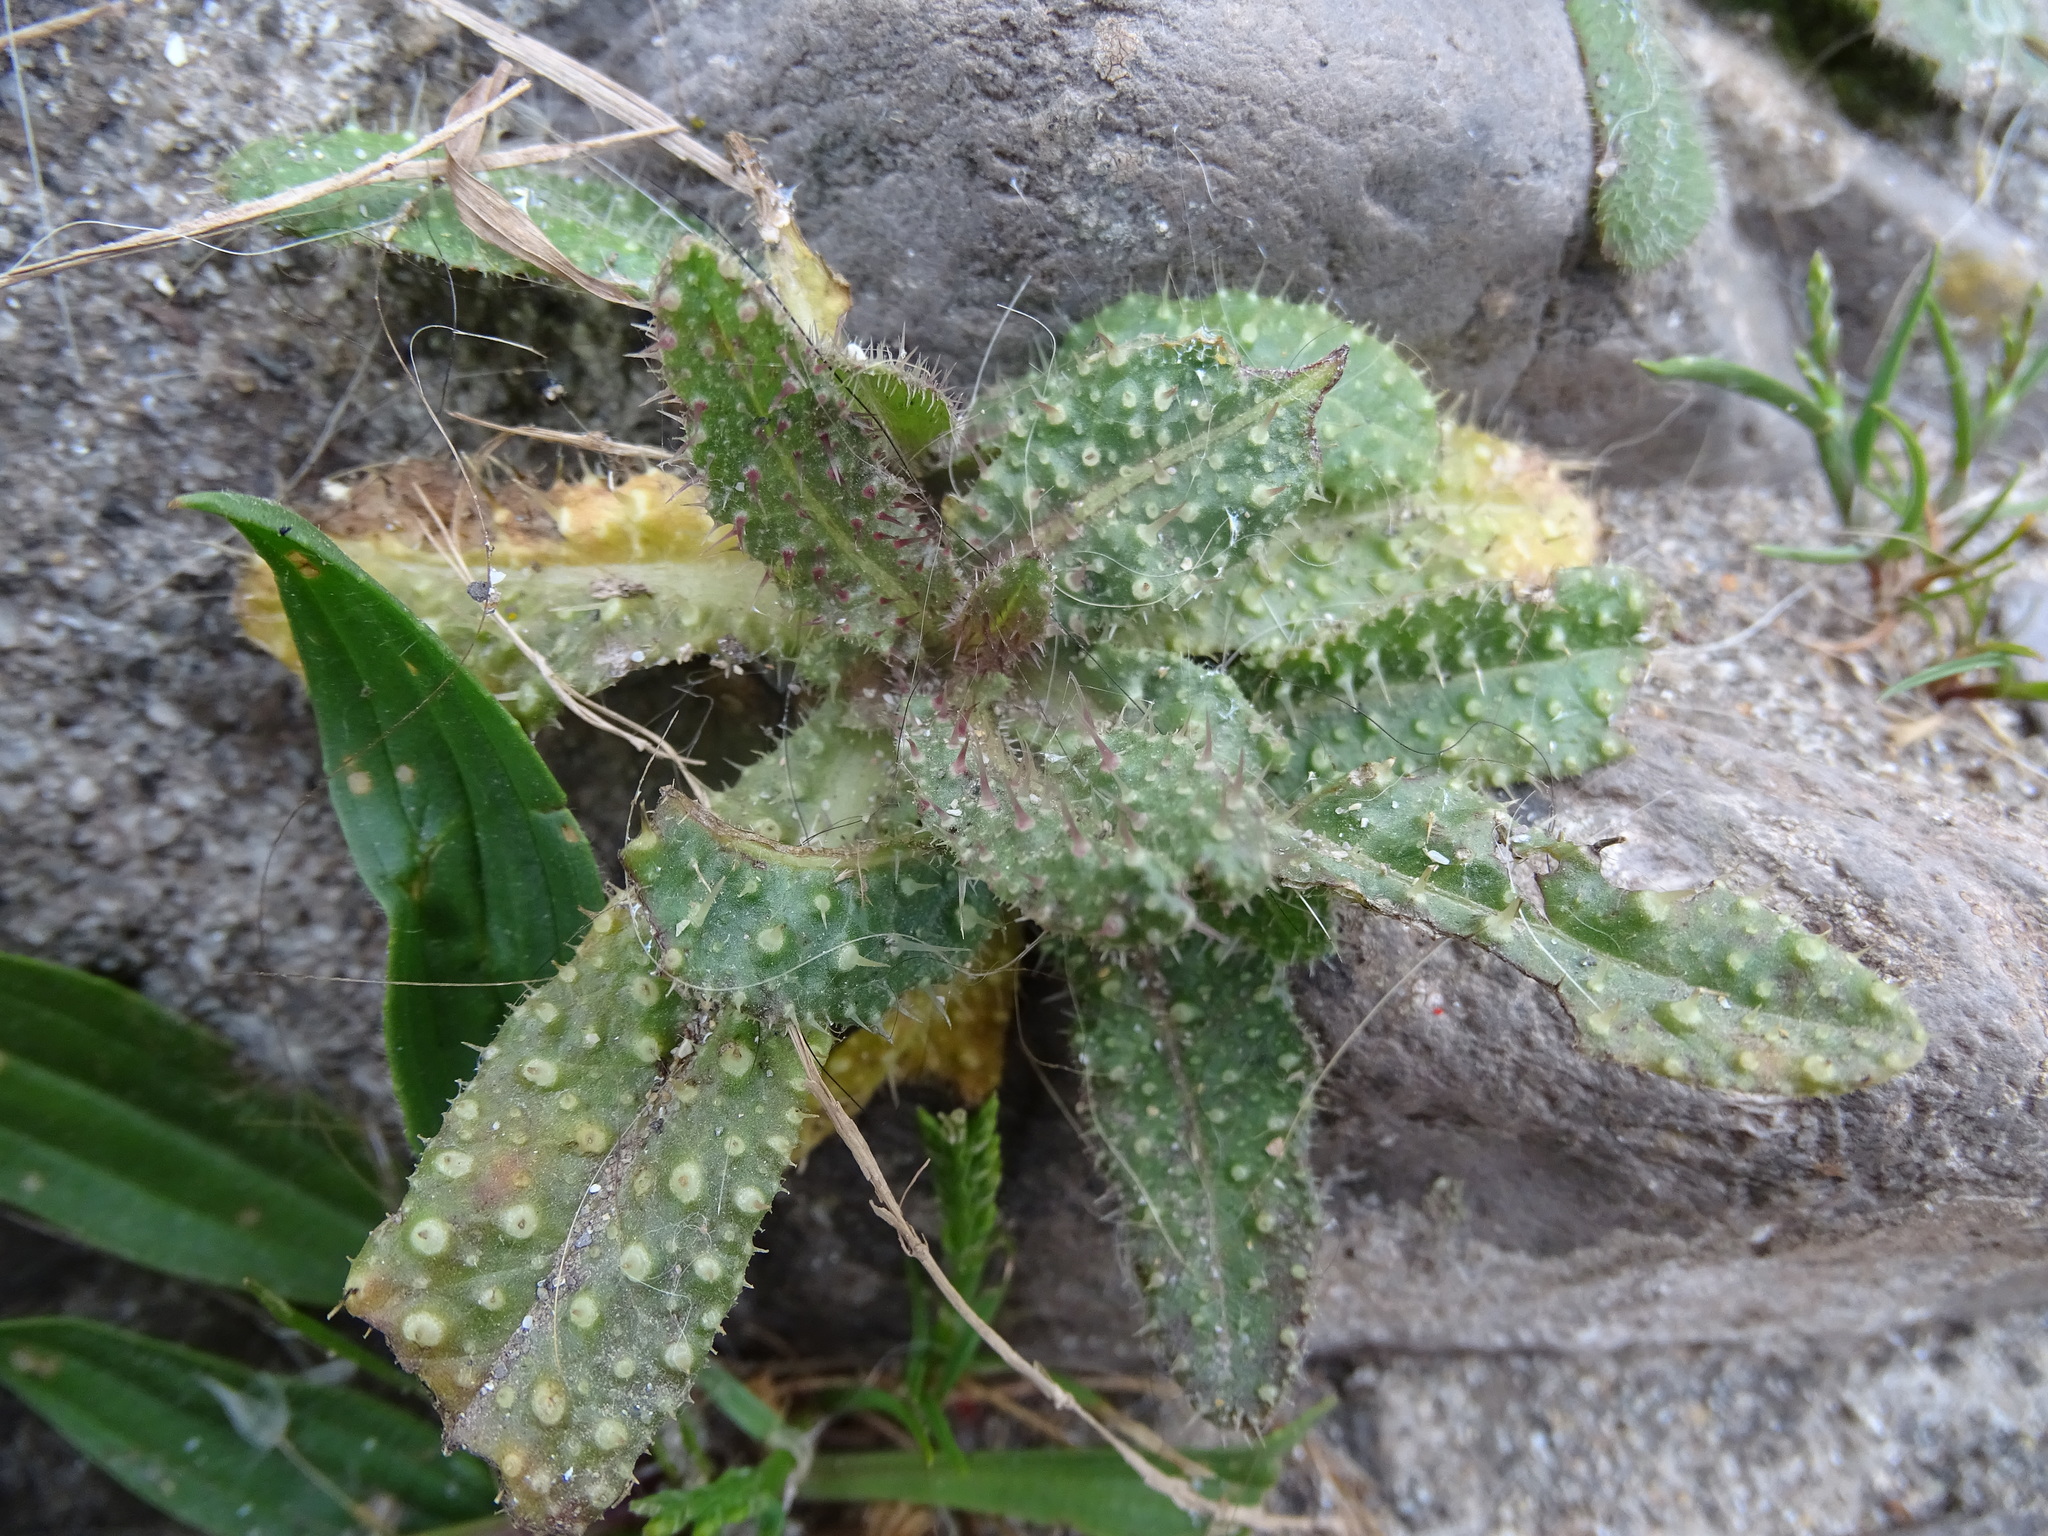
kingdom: Plantae
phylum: Tracheophyta
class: Magnoliopsida
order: Asterales
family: Asteraceae
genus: Helminthotheca
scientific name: Helminthotheca echioides
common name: Ox-tongue
